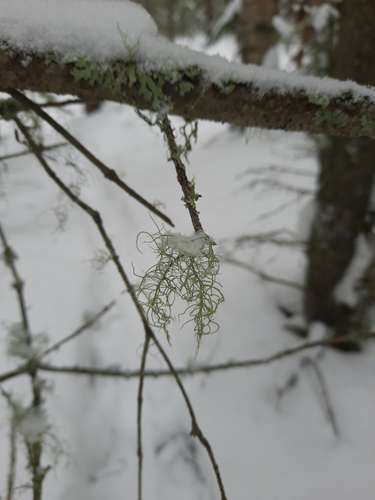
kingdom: Fungi
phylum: Ascomycota
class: Lecanoromycetes
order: Lecanorales
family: Parmeliaceae
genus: Usnea
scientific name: Usnea
